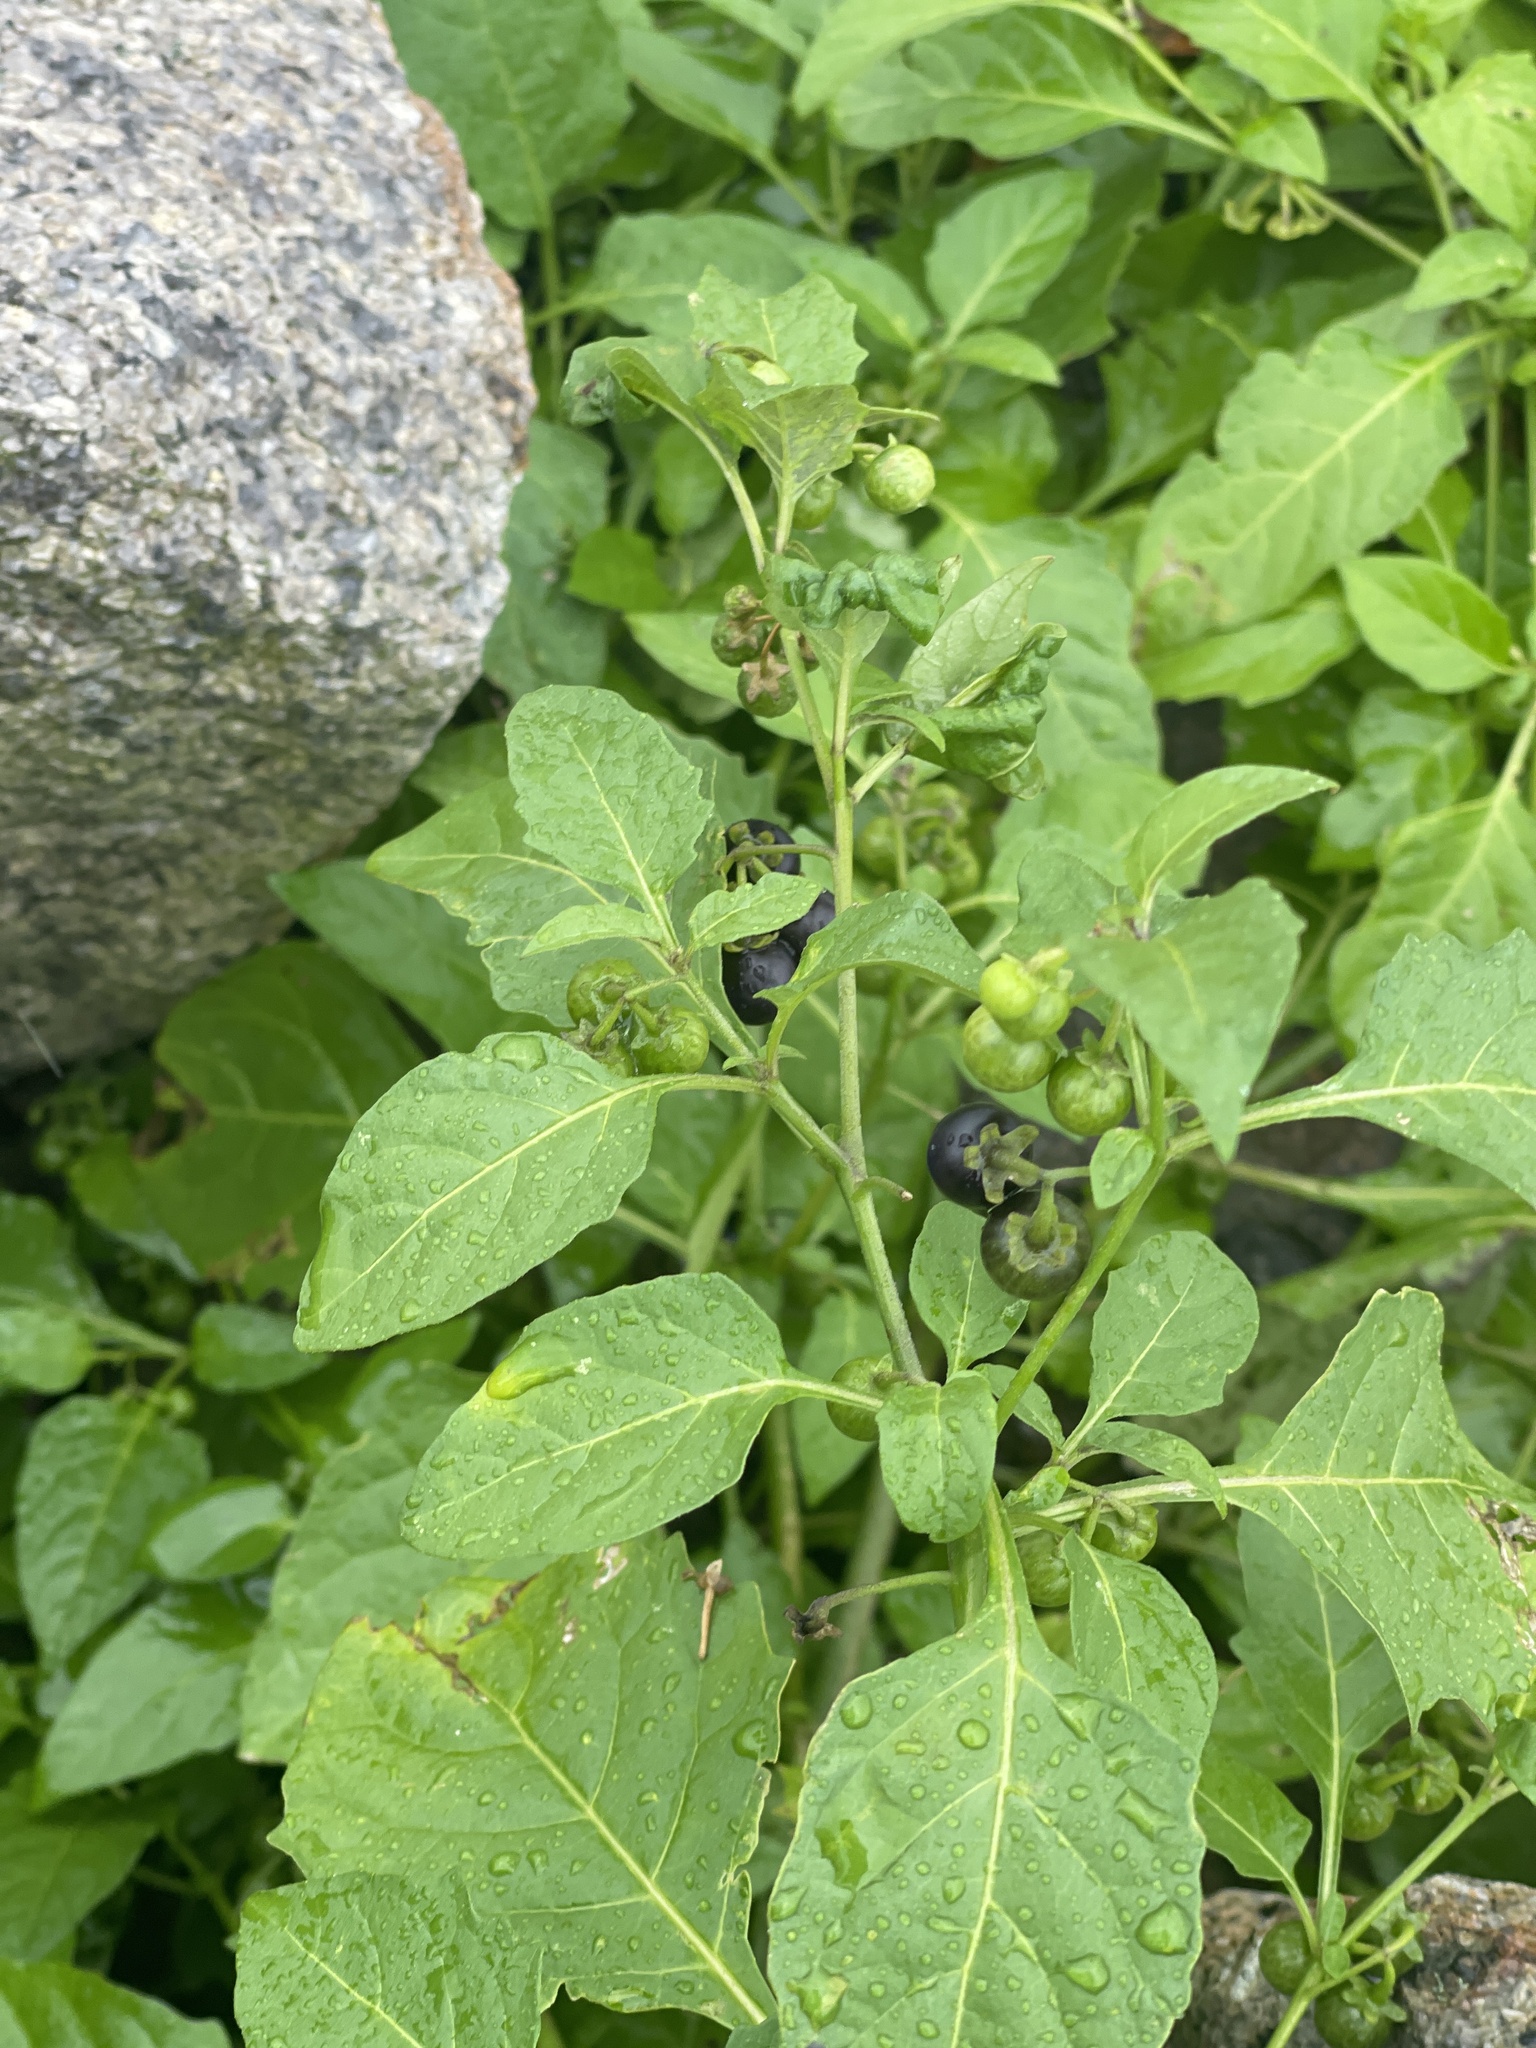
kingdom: Plantae
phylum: Tracheophyta
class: Magnoliopsida
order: Solanales
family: Solanaceae
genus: Solanum
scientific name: Solanum emulans
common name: Eastern black nightshade
